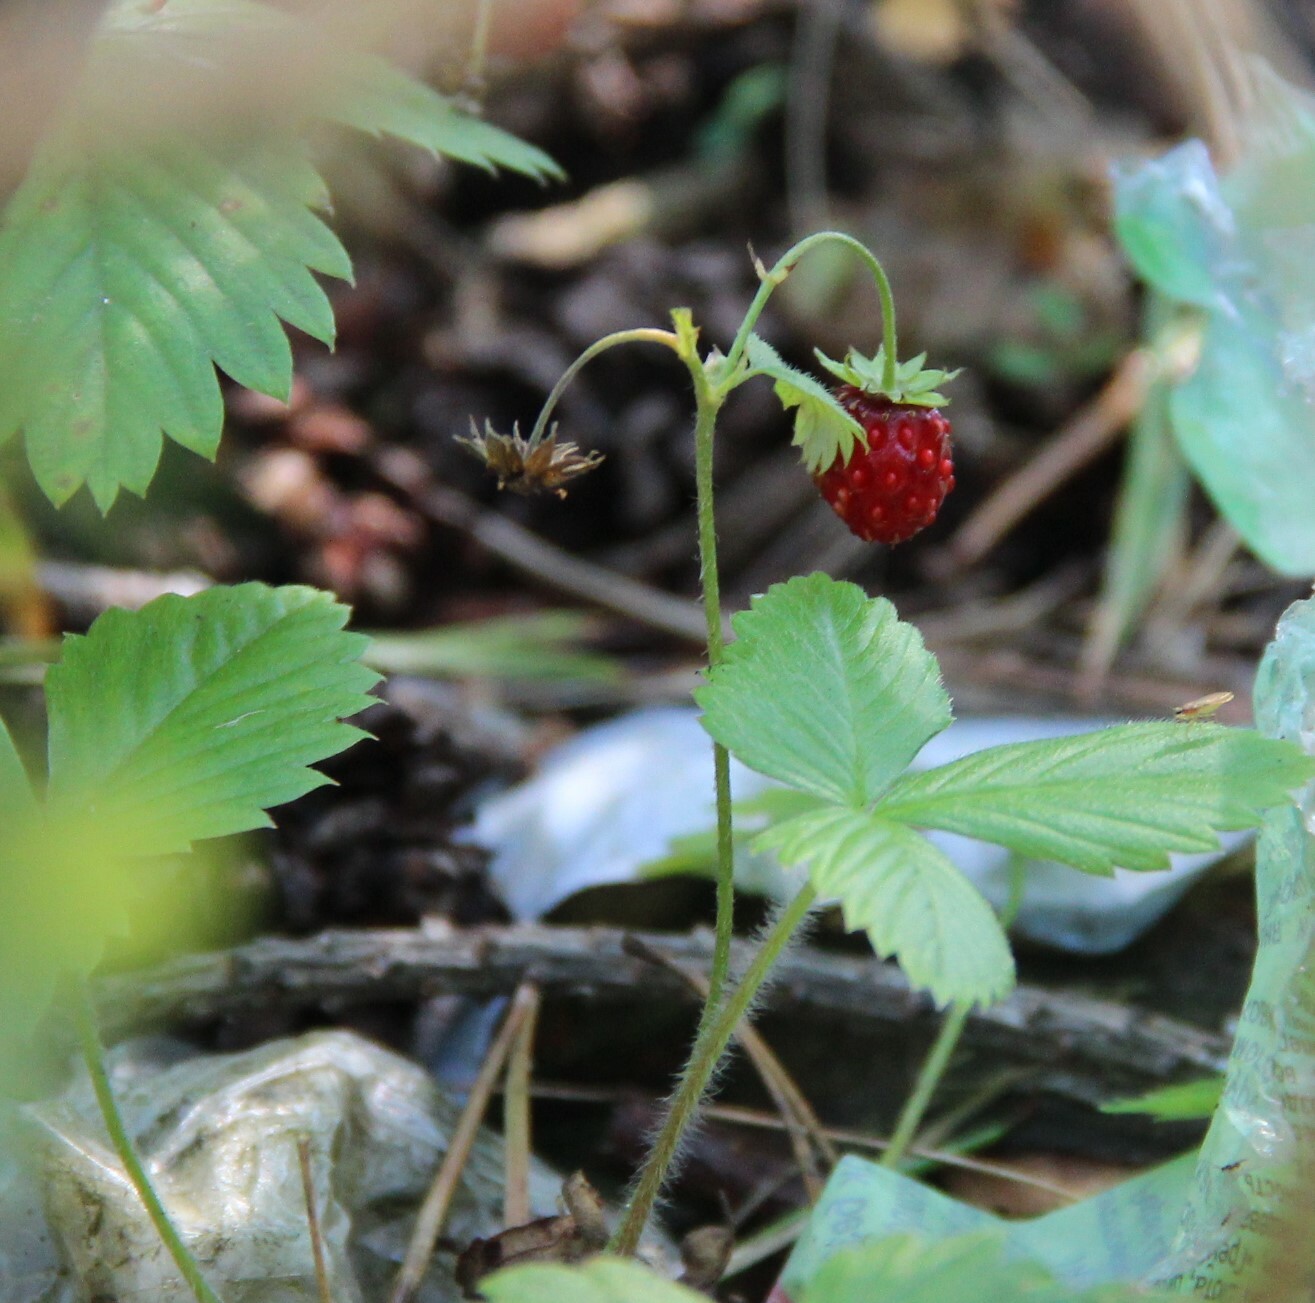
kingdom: Plantae
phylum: Tracheophyta
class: Magnoliopsida
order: Rosales
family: Rosaceae
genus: Fragaria
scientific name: Fragaria vesca
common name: Wild strawberry
